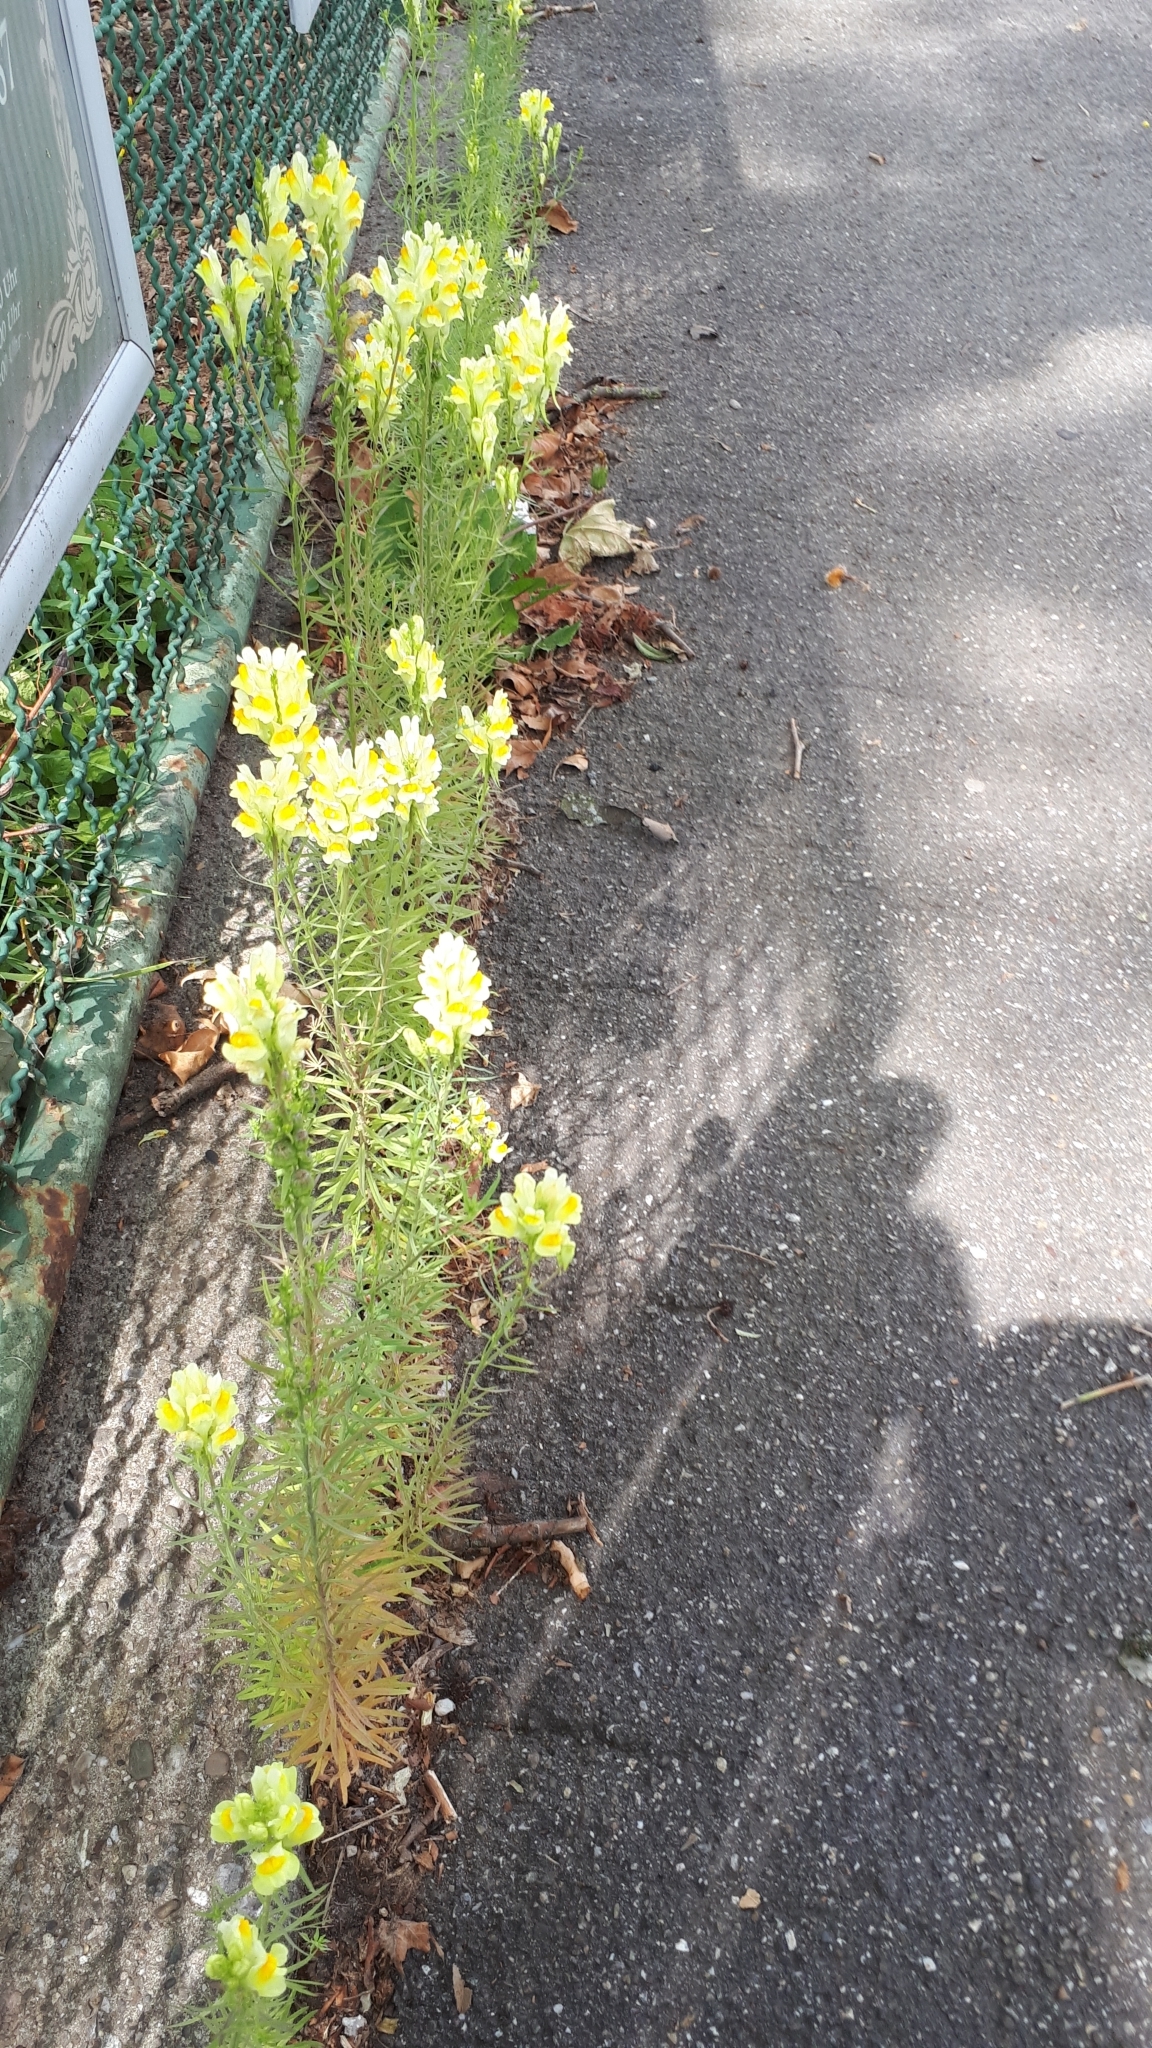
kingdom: Plantae
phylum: Tracheophyta
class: Magnoliopsida
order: Lamiales
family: Plantaginaceae
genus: Linaria
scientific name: Linaria vulgaris
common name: Butter and eggs
